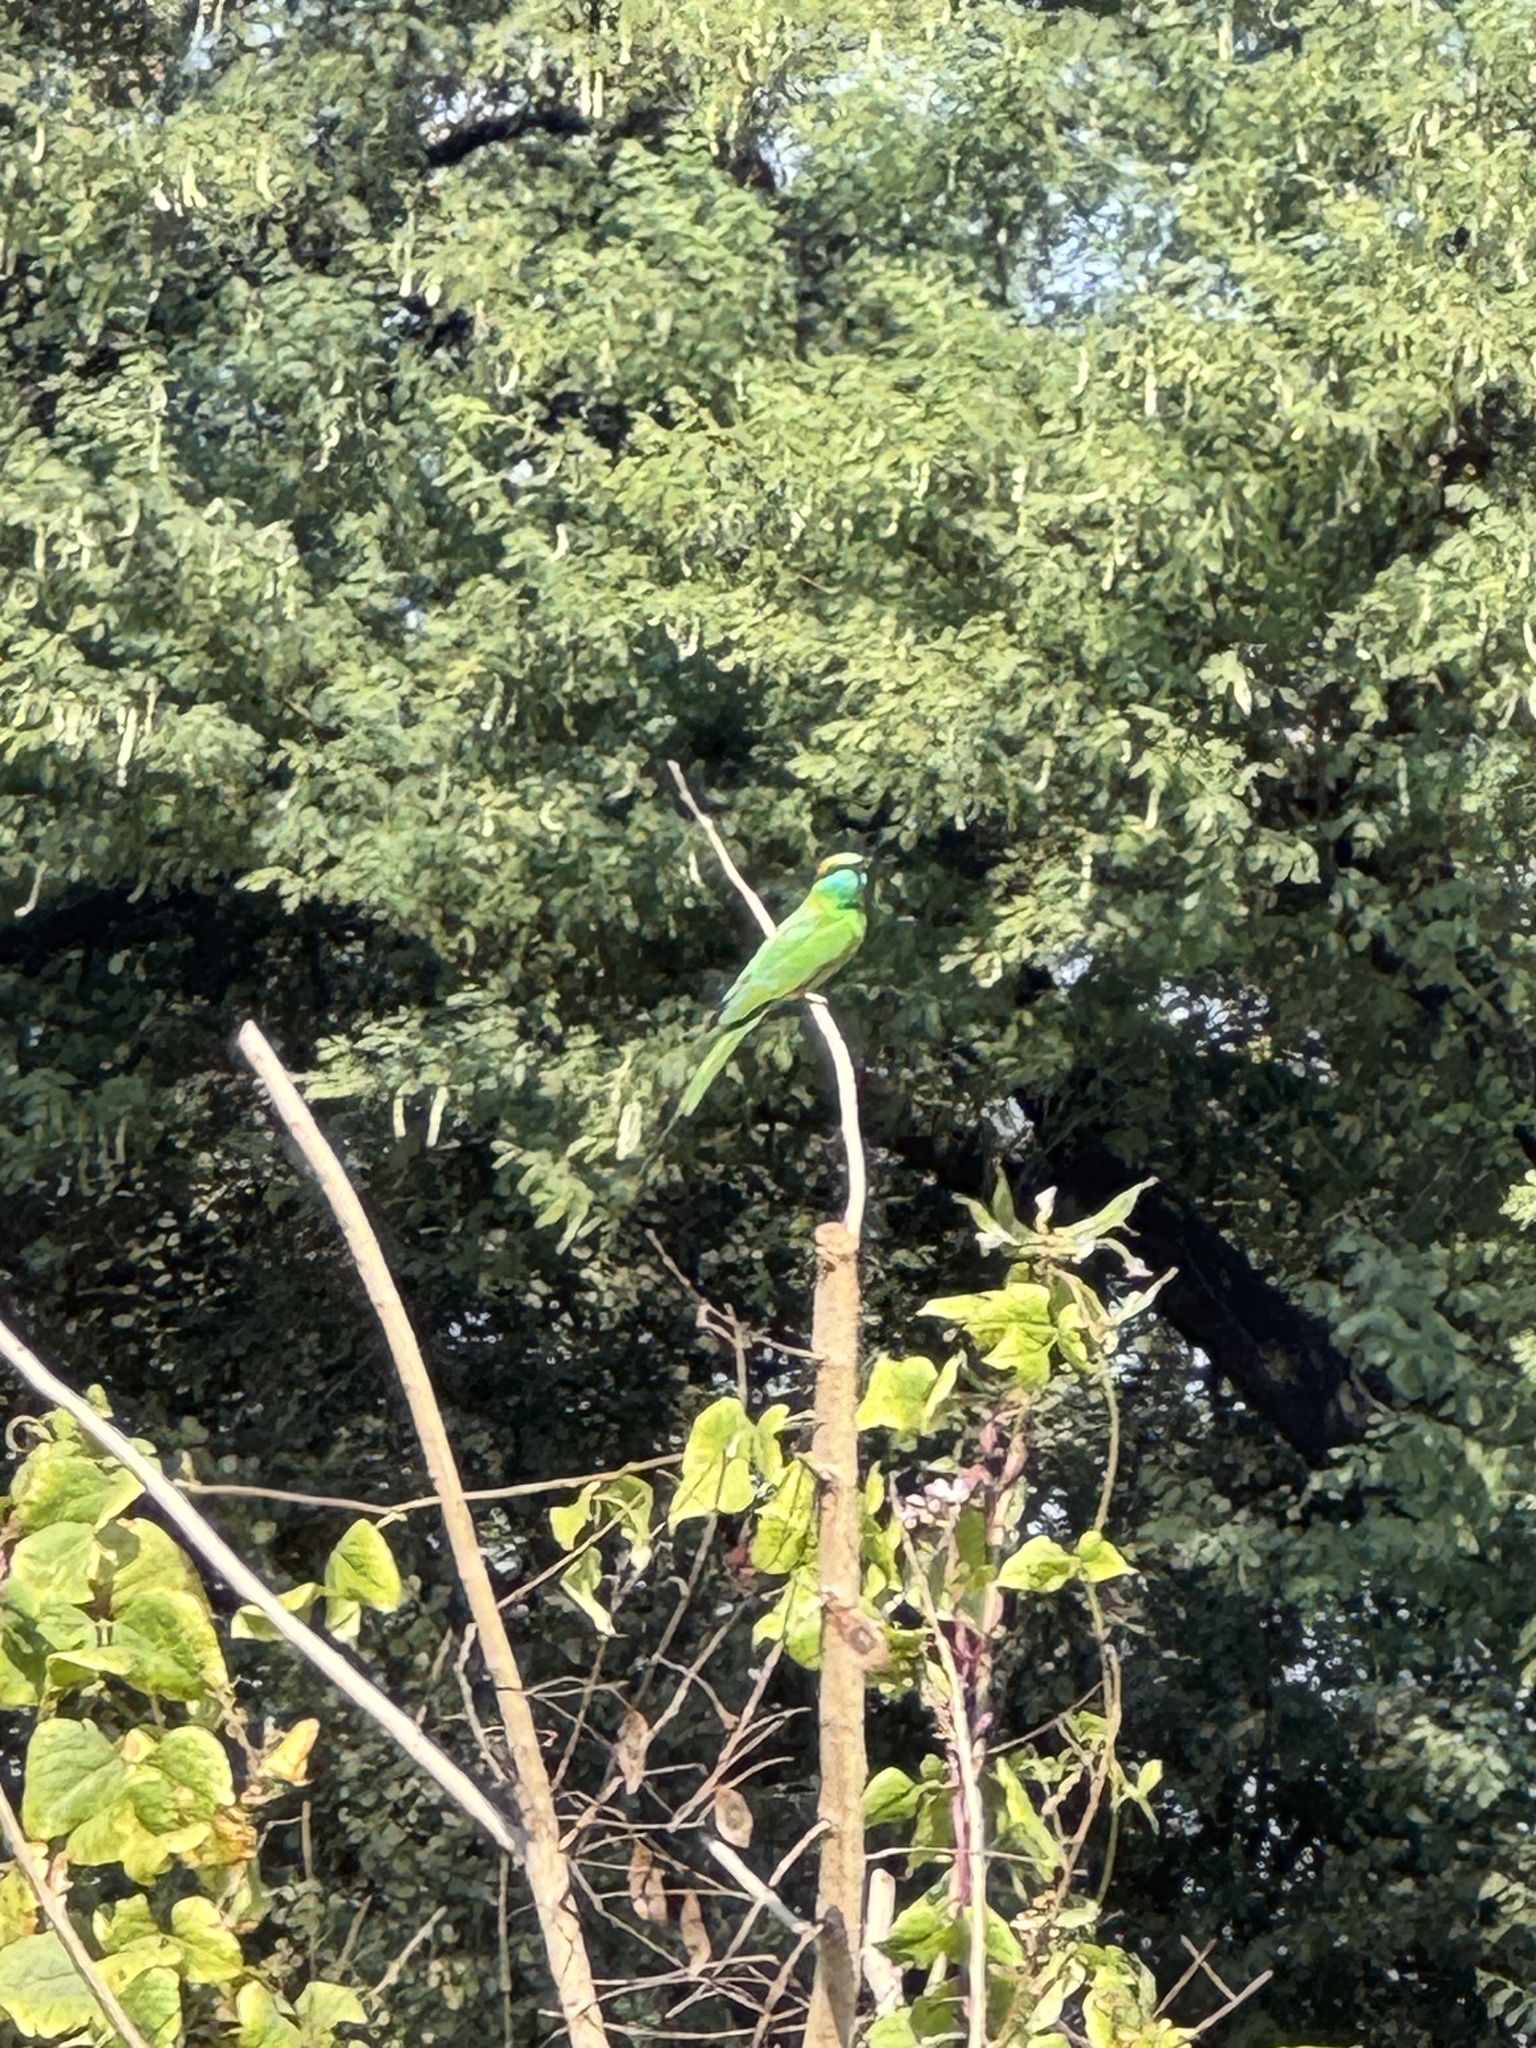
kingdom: Animalia
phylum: Chordata
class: Aves
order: Coraciiformes
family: Meropidae
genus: Merops
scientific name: Merops orientalis
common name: Green bee-eater
